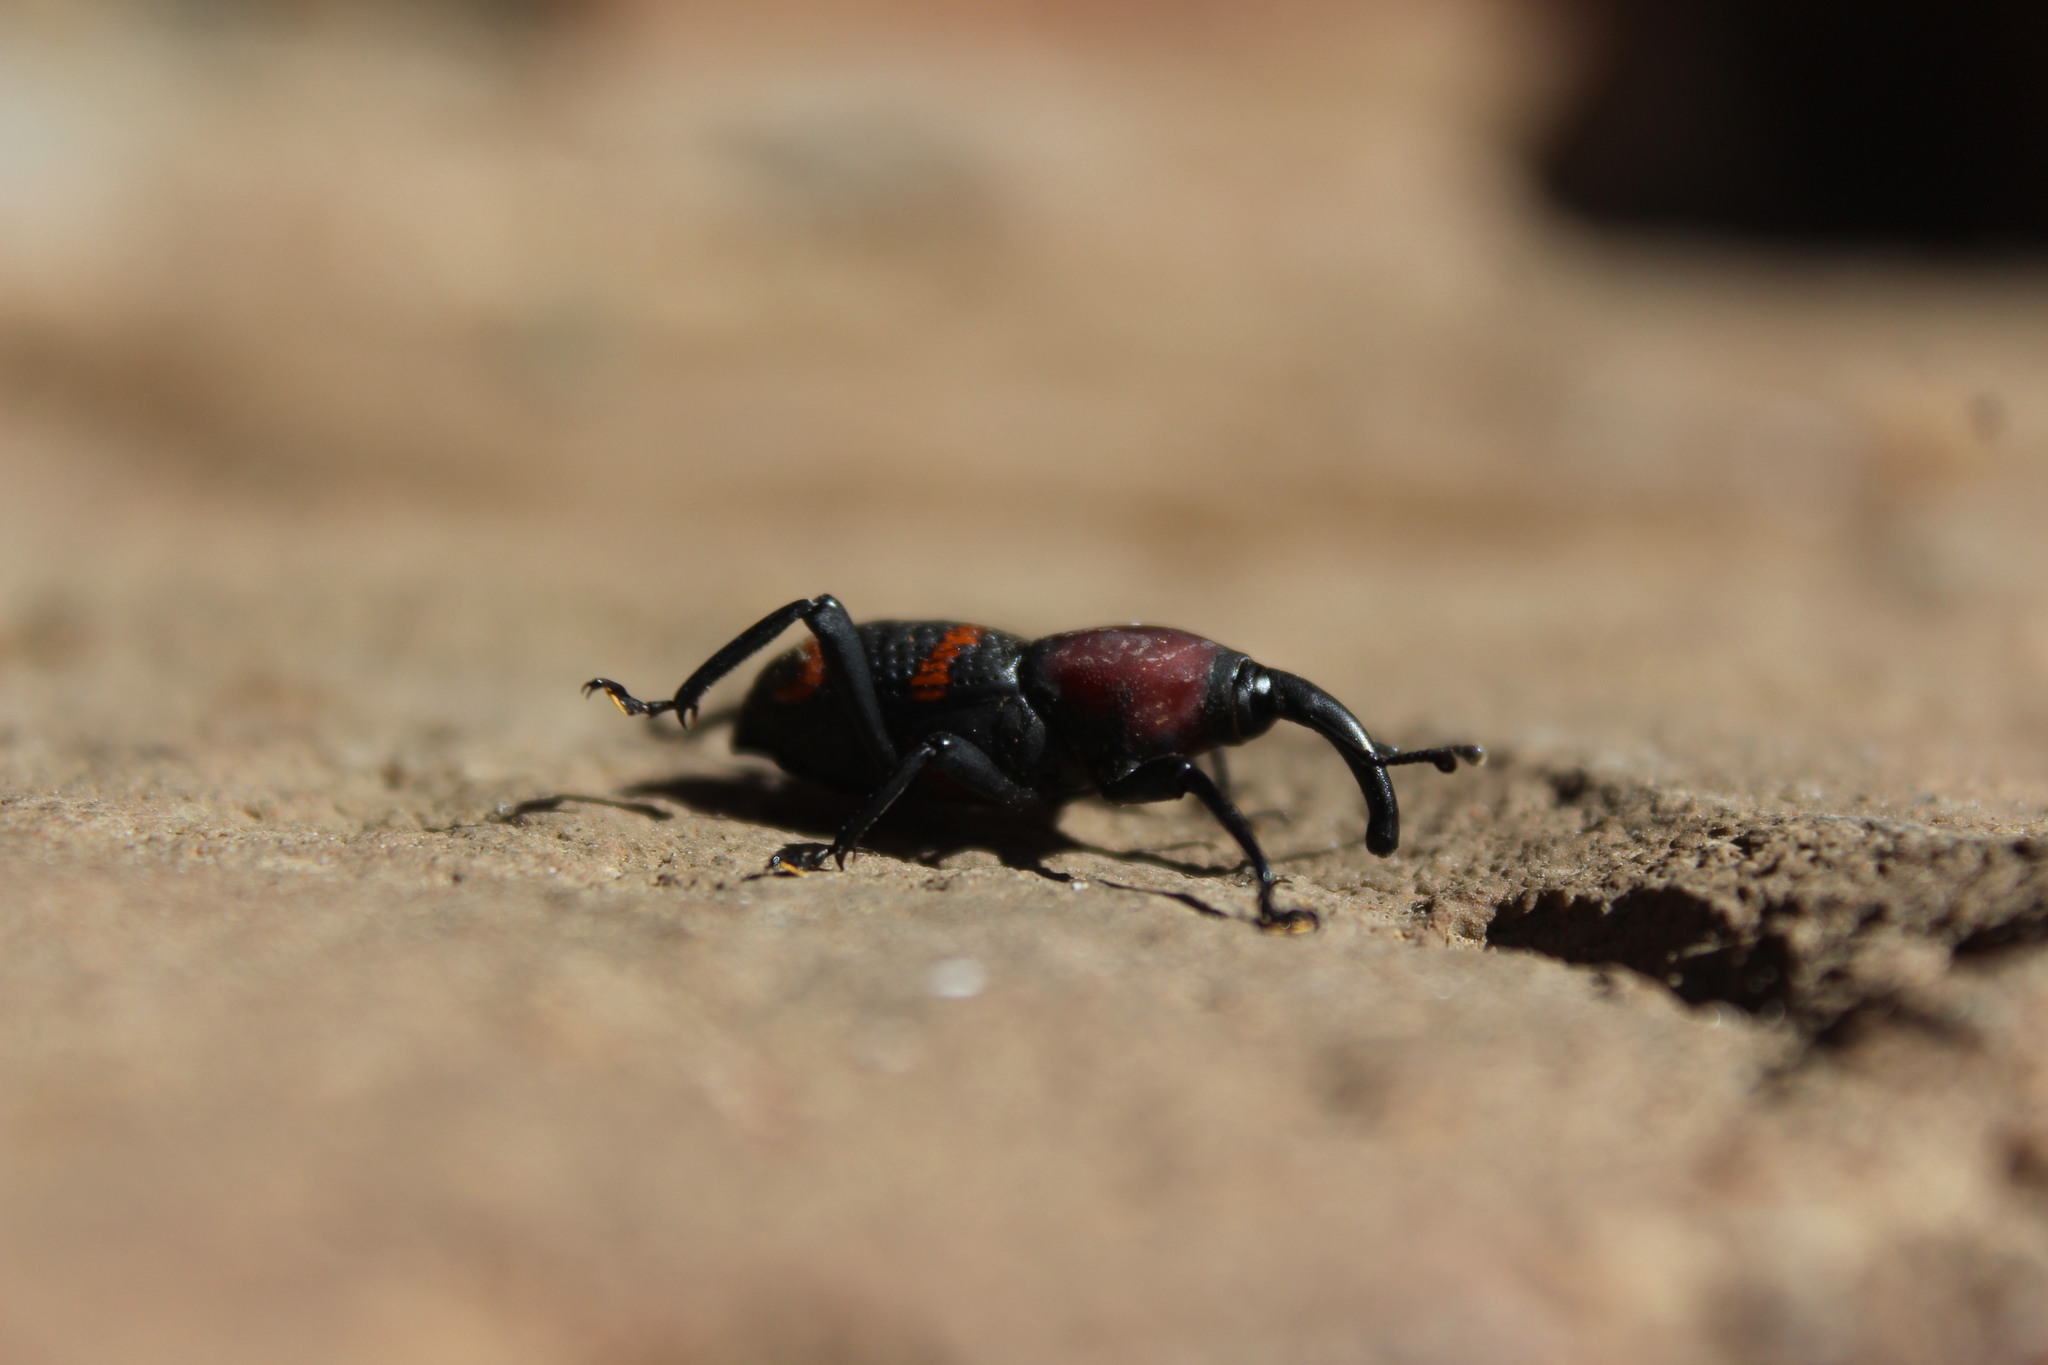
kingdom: Animalia
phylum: Arthropoda
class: Insecta
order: Coleoptera
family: Dryophthoridae
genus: Cactophagus
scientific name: Cactophagus
